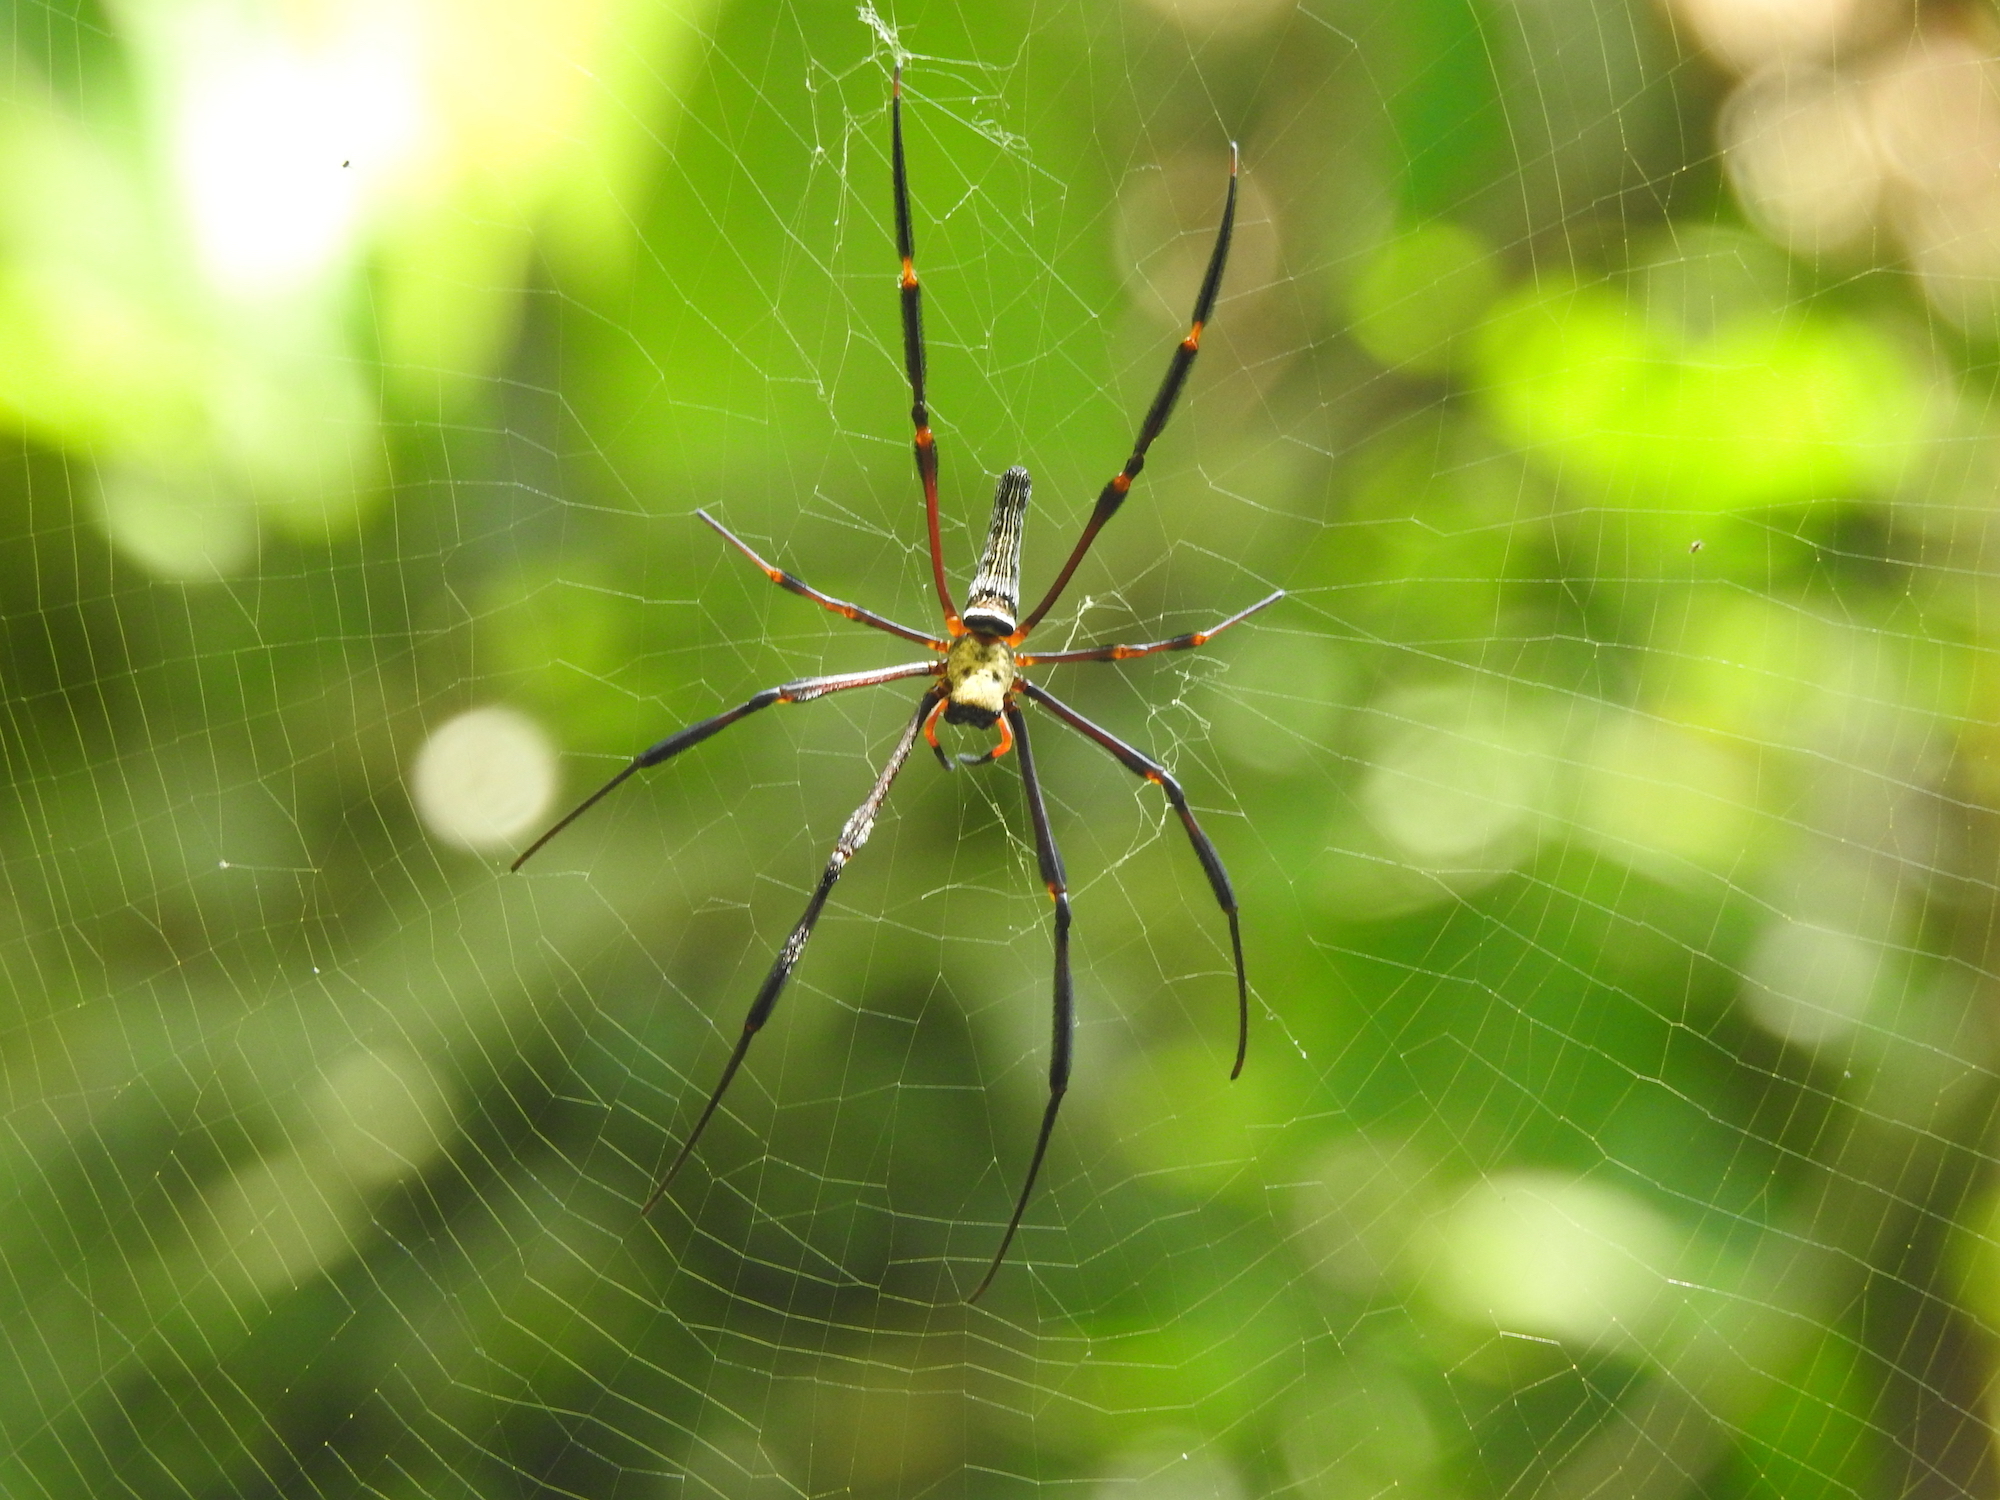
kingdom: Animalia
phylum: Arthropoda
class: Arachnida
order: Araneae
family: Araneidae
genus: Nephila
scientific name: Nephila pilipes
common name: Giant golden orb weaver
